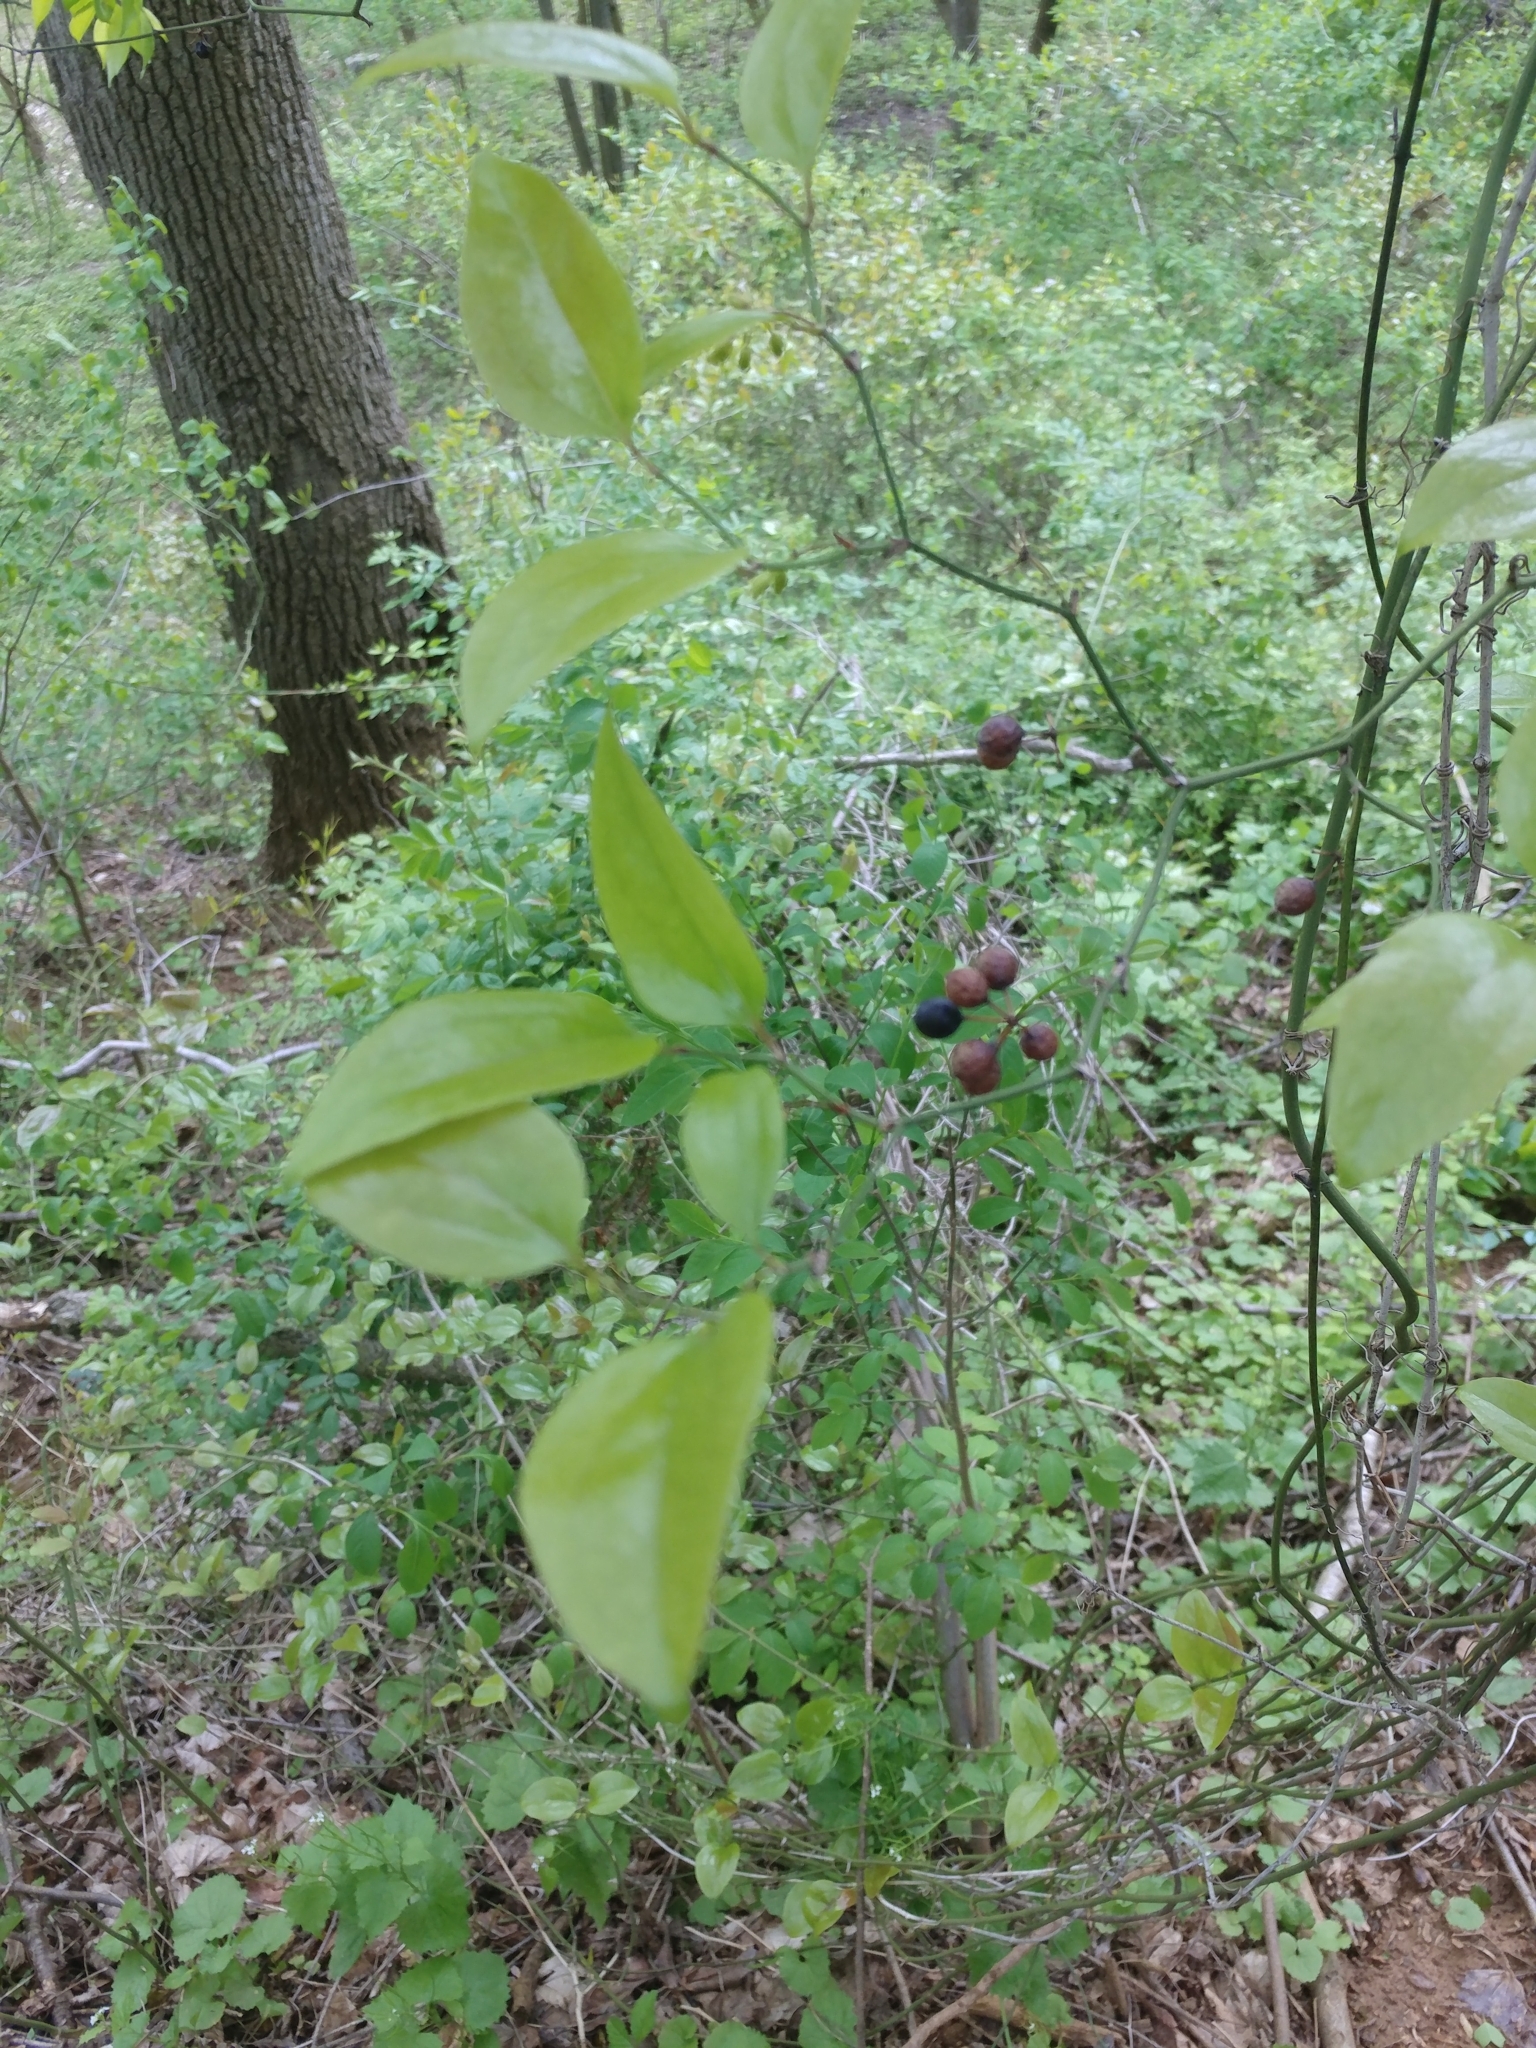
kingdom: Plantae
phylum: Tracheophyta
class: Liliopsida
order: Liliales
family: Smilacaceae
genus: Smilax
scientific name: Smilax rotundifolia
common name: Bullbriar
